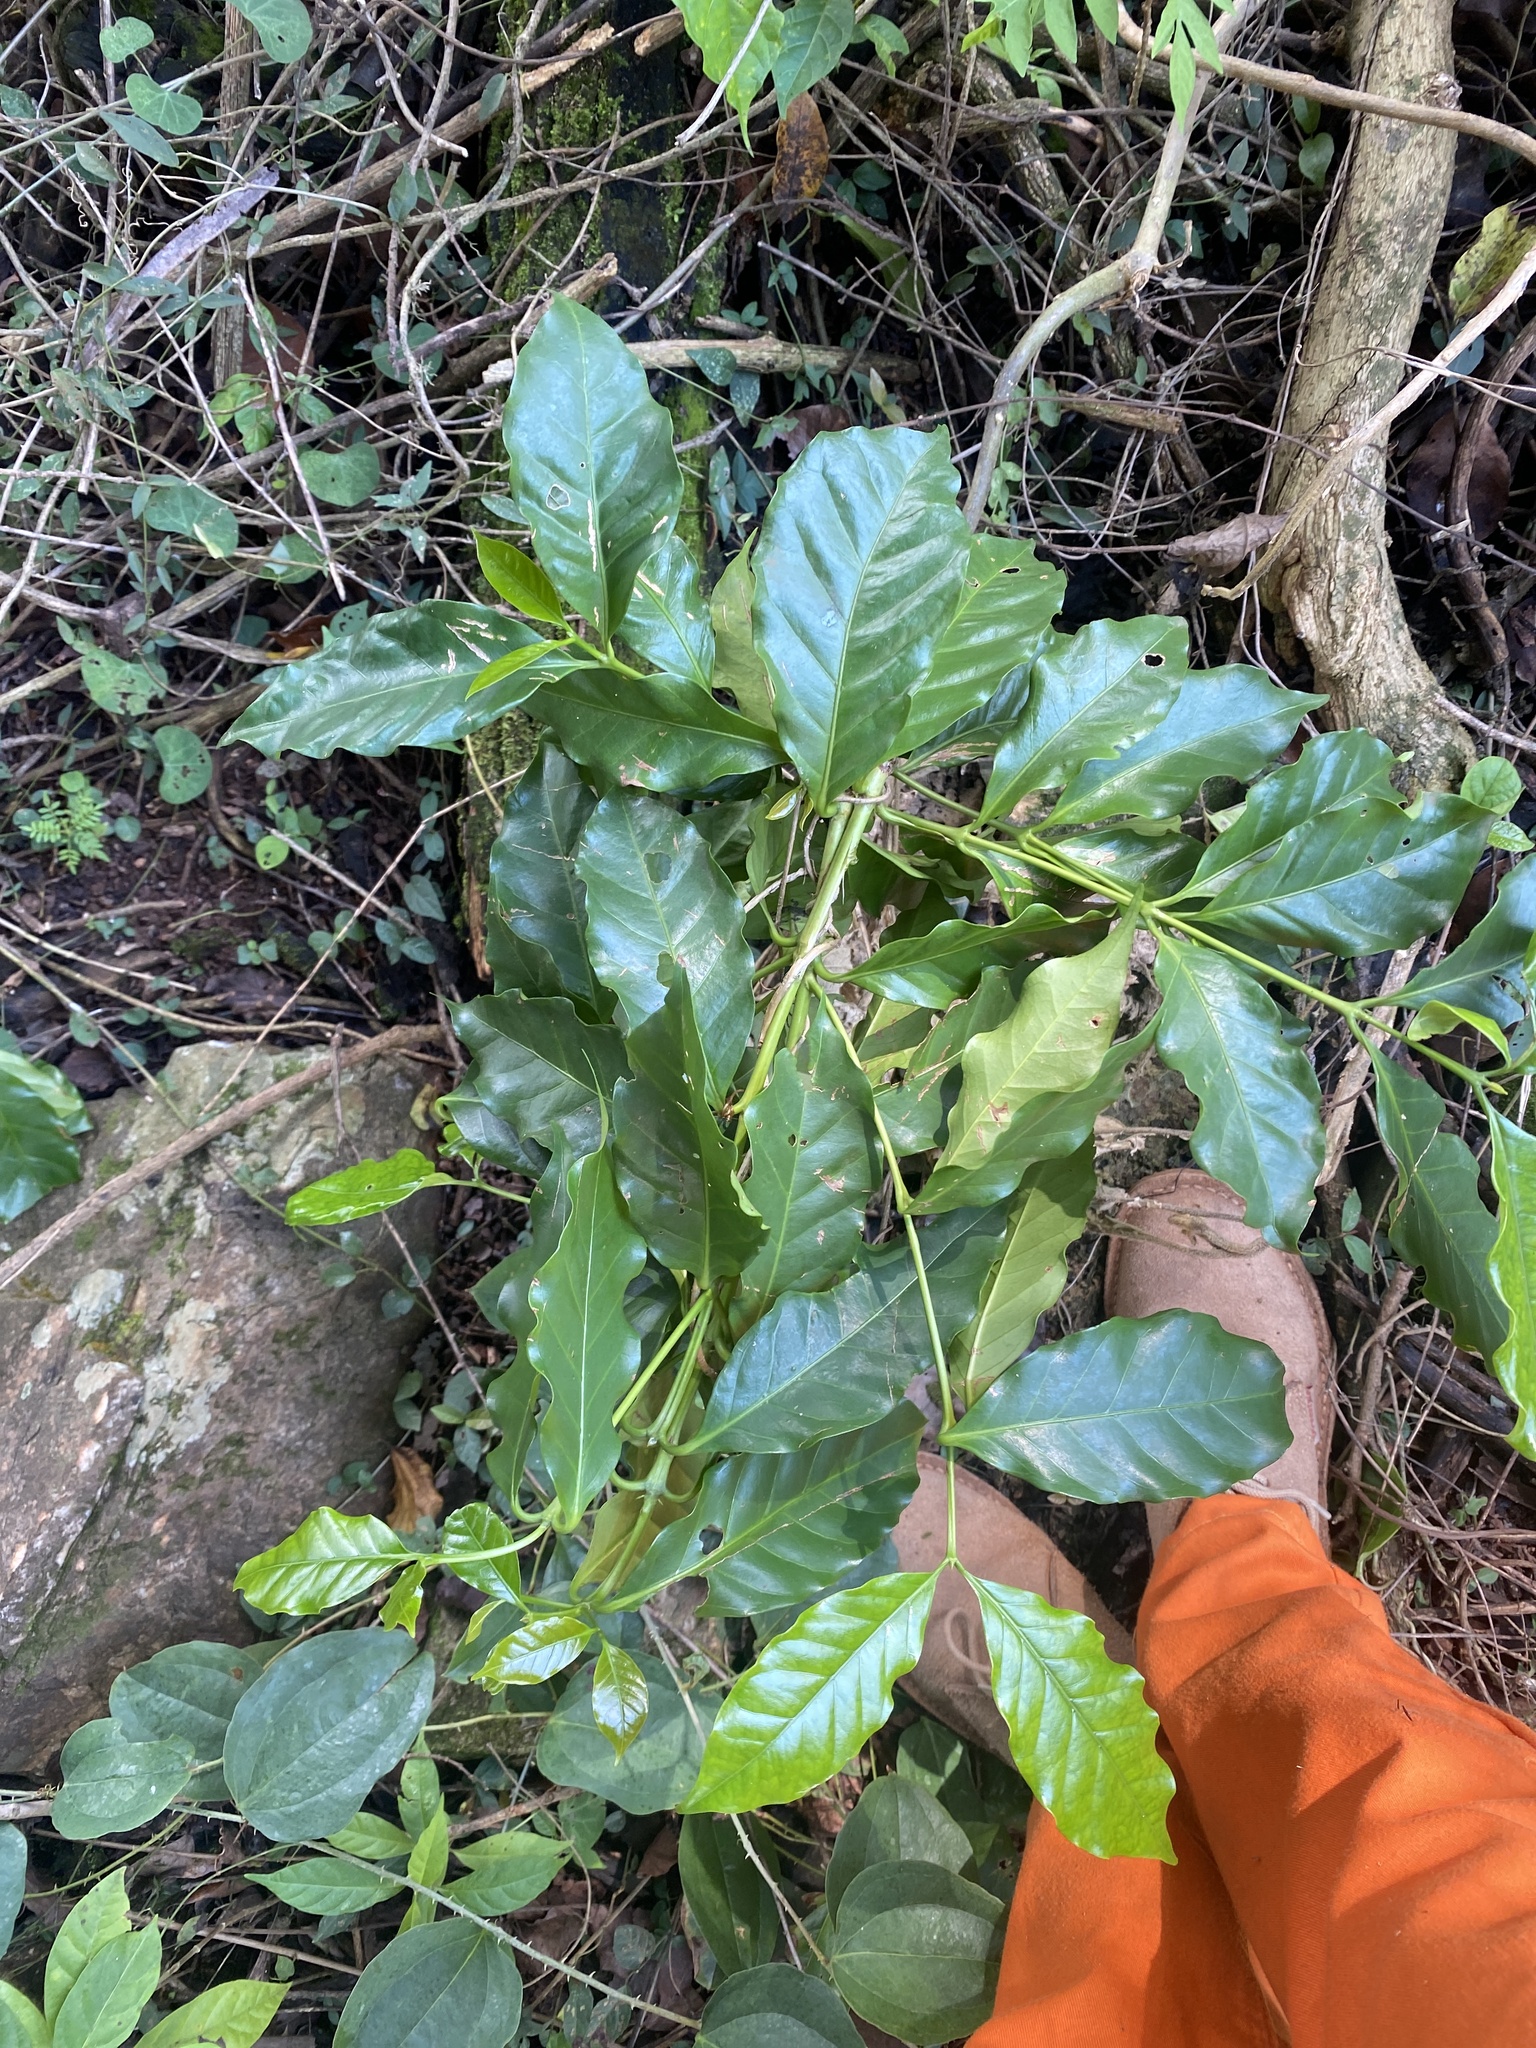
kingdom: Plantae
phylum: Tracheophyta
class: Magnoliopsida
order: Gentianales
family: Rubiaceae
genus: Coffea
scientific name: Coffea arabica
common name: Coffee
